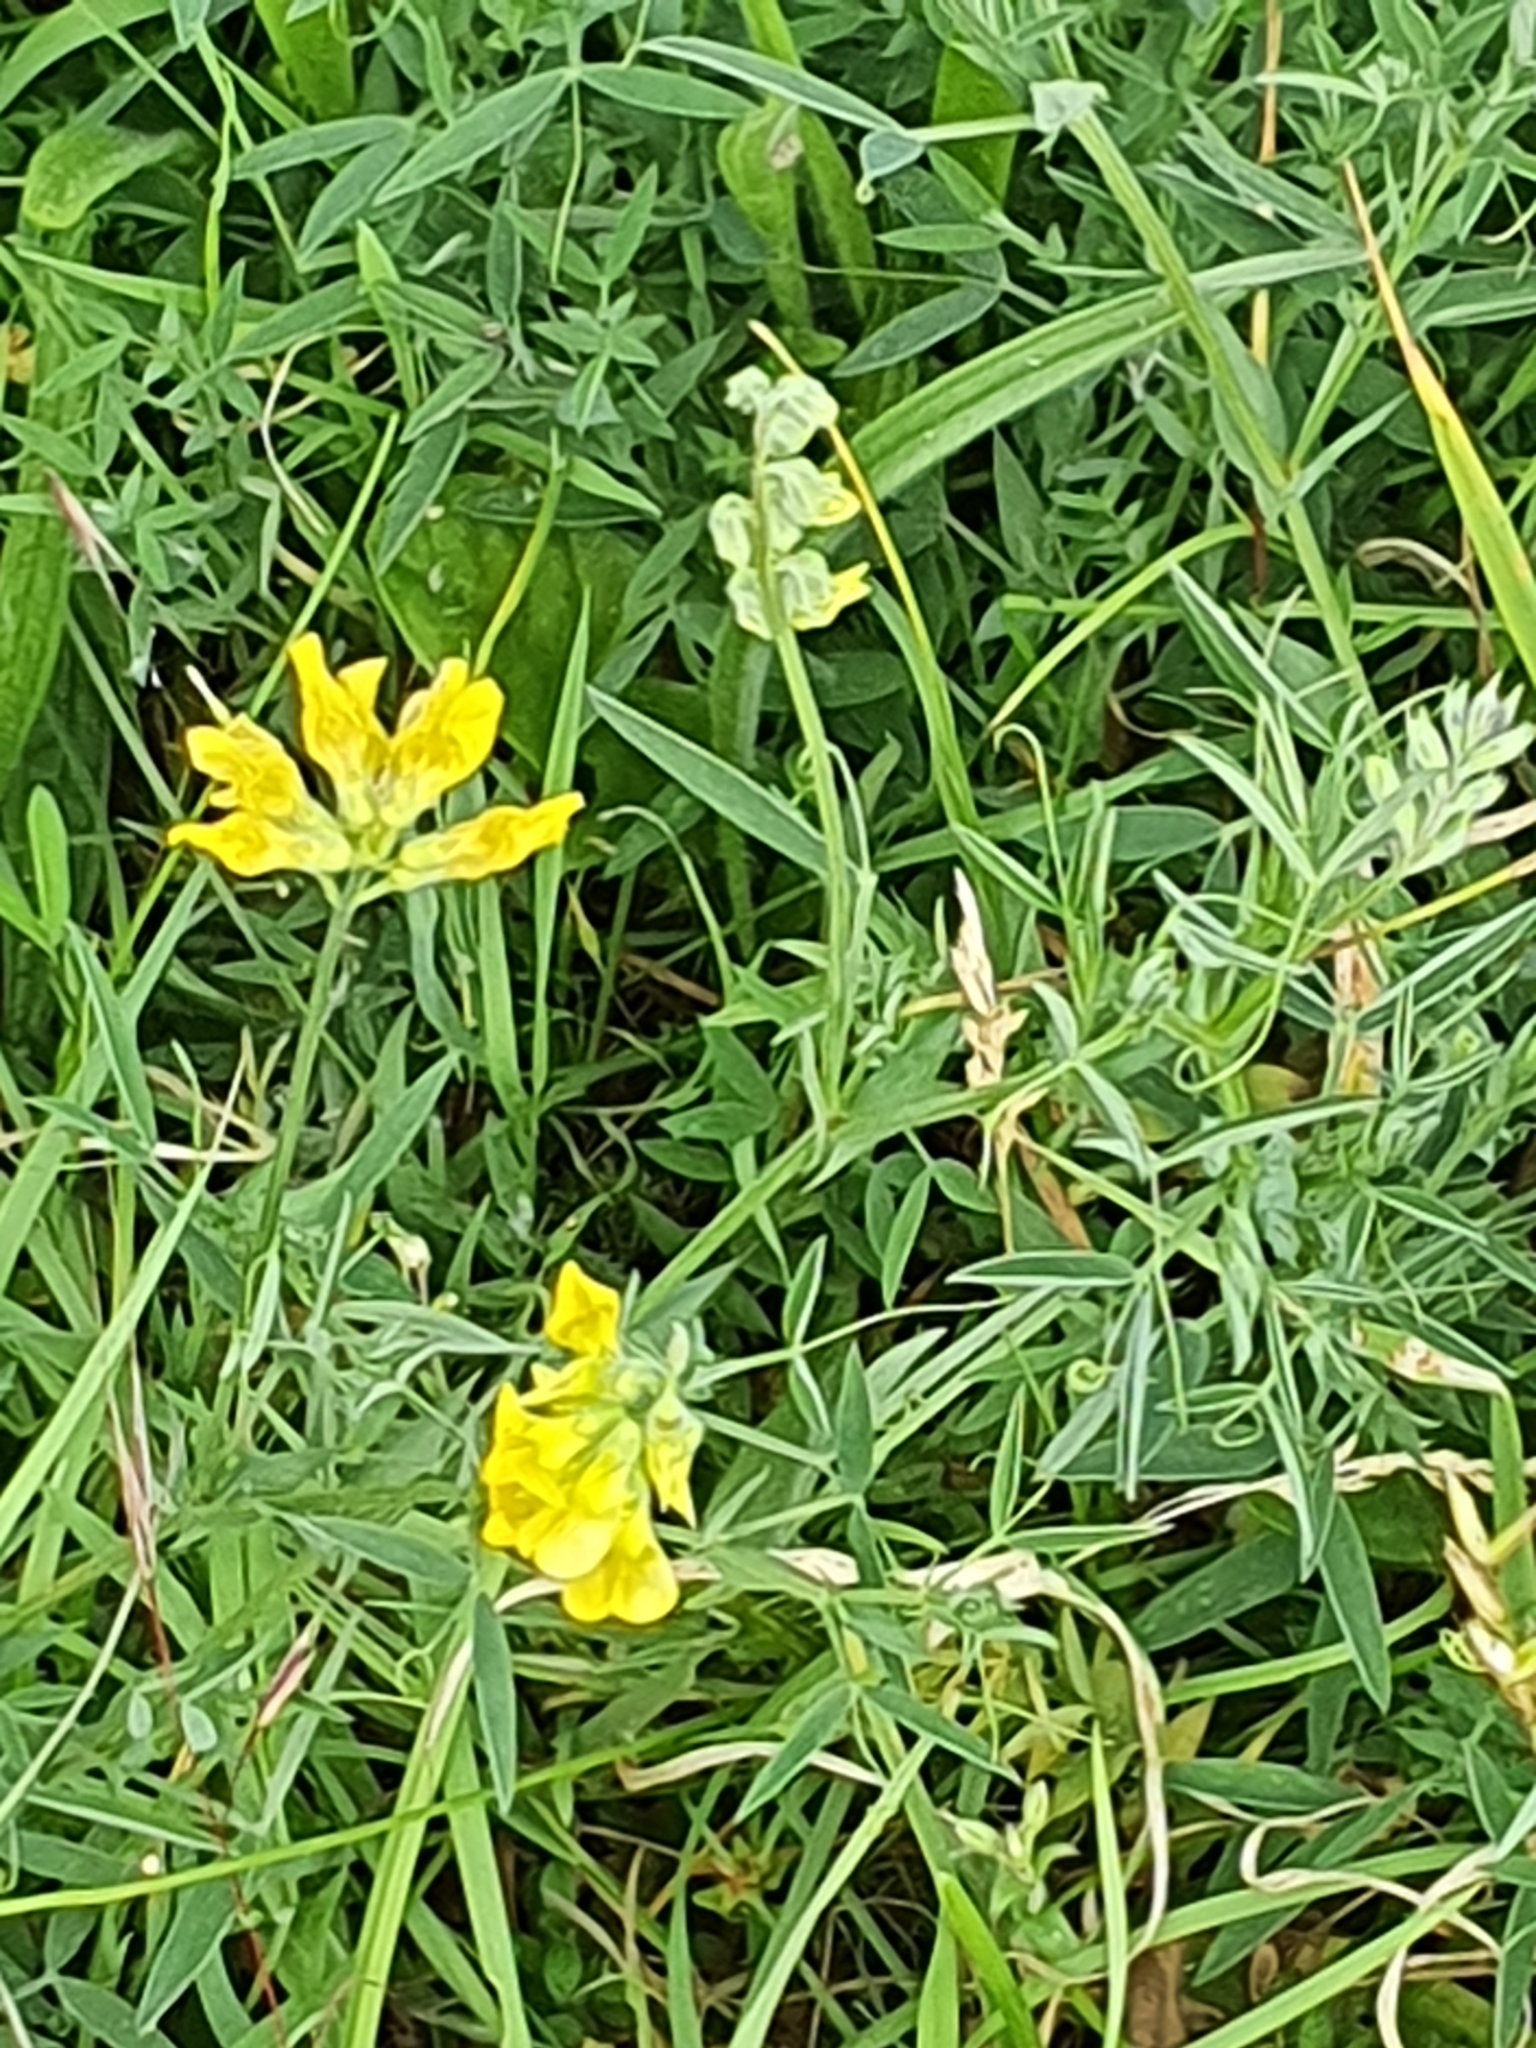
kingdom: Plantae
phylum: Tracheophyta
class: Magnoliopsida
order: Fabales
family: Fabaceae
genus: Lathyrus
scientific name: Lathyrus pratensis
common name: Meadow vetchling
